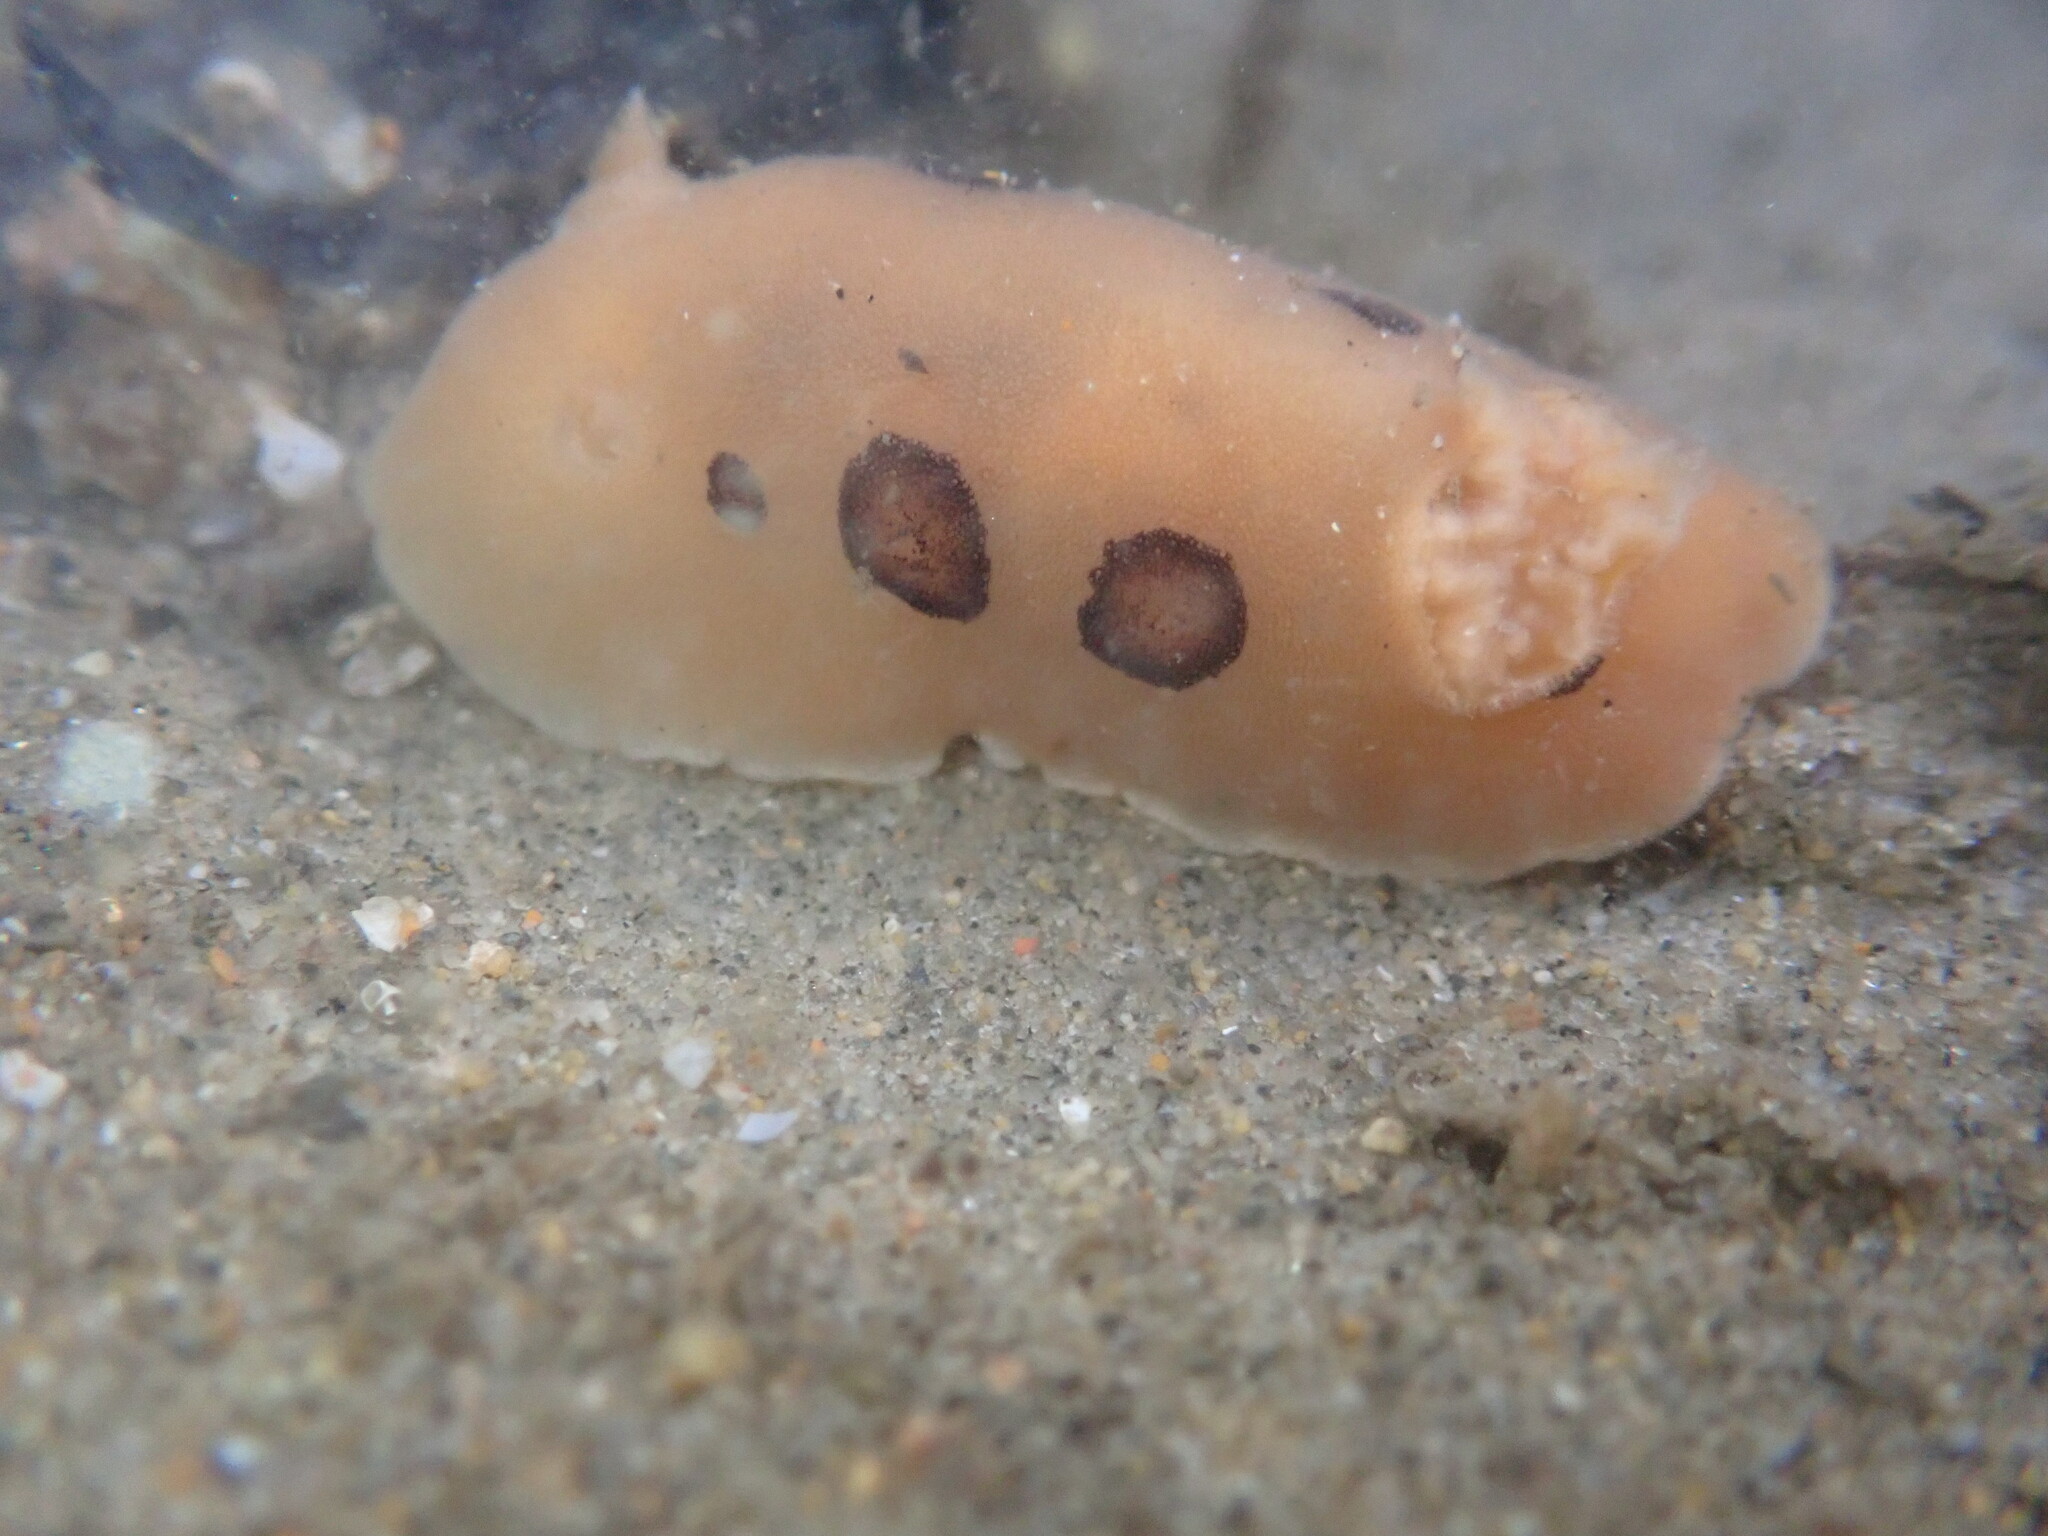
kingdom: Animalia
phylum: Mollusca
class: Gastropoda
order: Nudibranchia
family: Discodorididae
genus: Diaulula
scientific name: Diaulula sandiegensis
